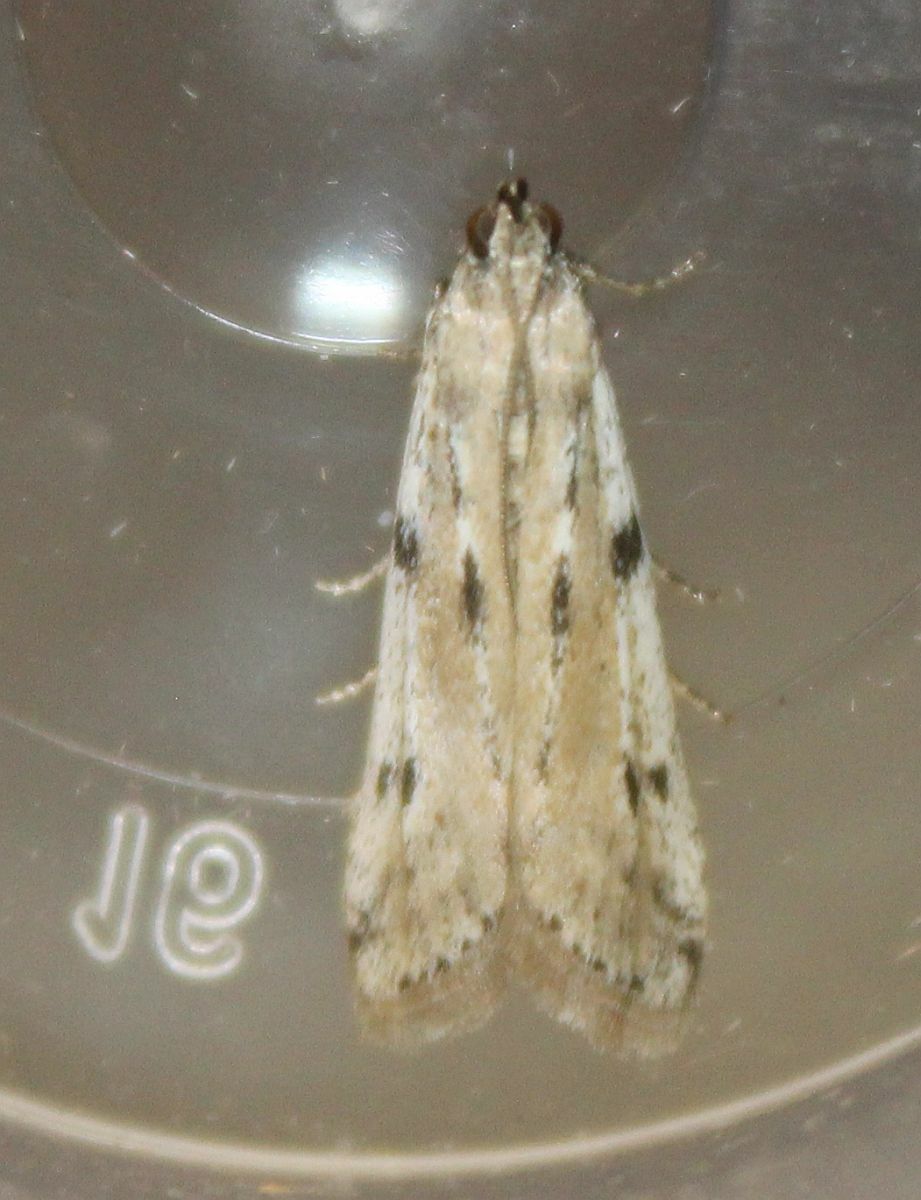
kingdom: Animalia
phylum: Arthropoda
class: Insecta
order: Lepidoptera
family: Pyralidae
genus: Phycitodes
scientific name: Phycitodes binaevella
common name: Ermine knot-horn
